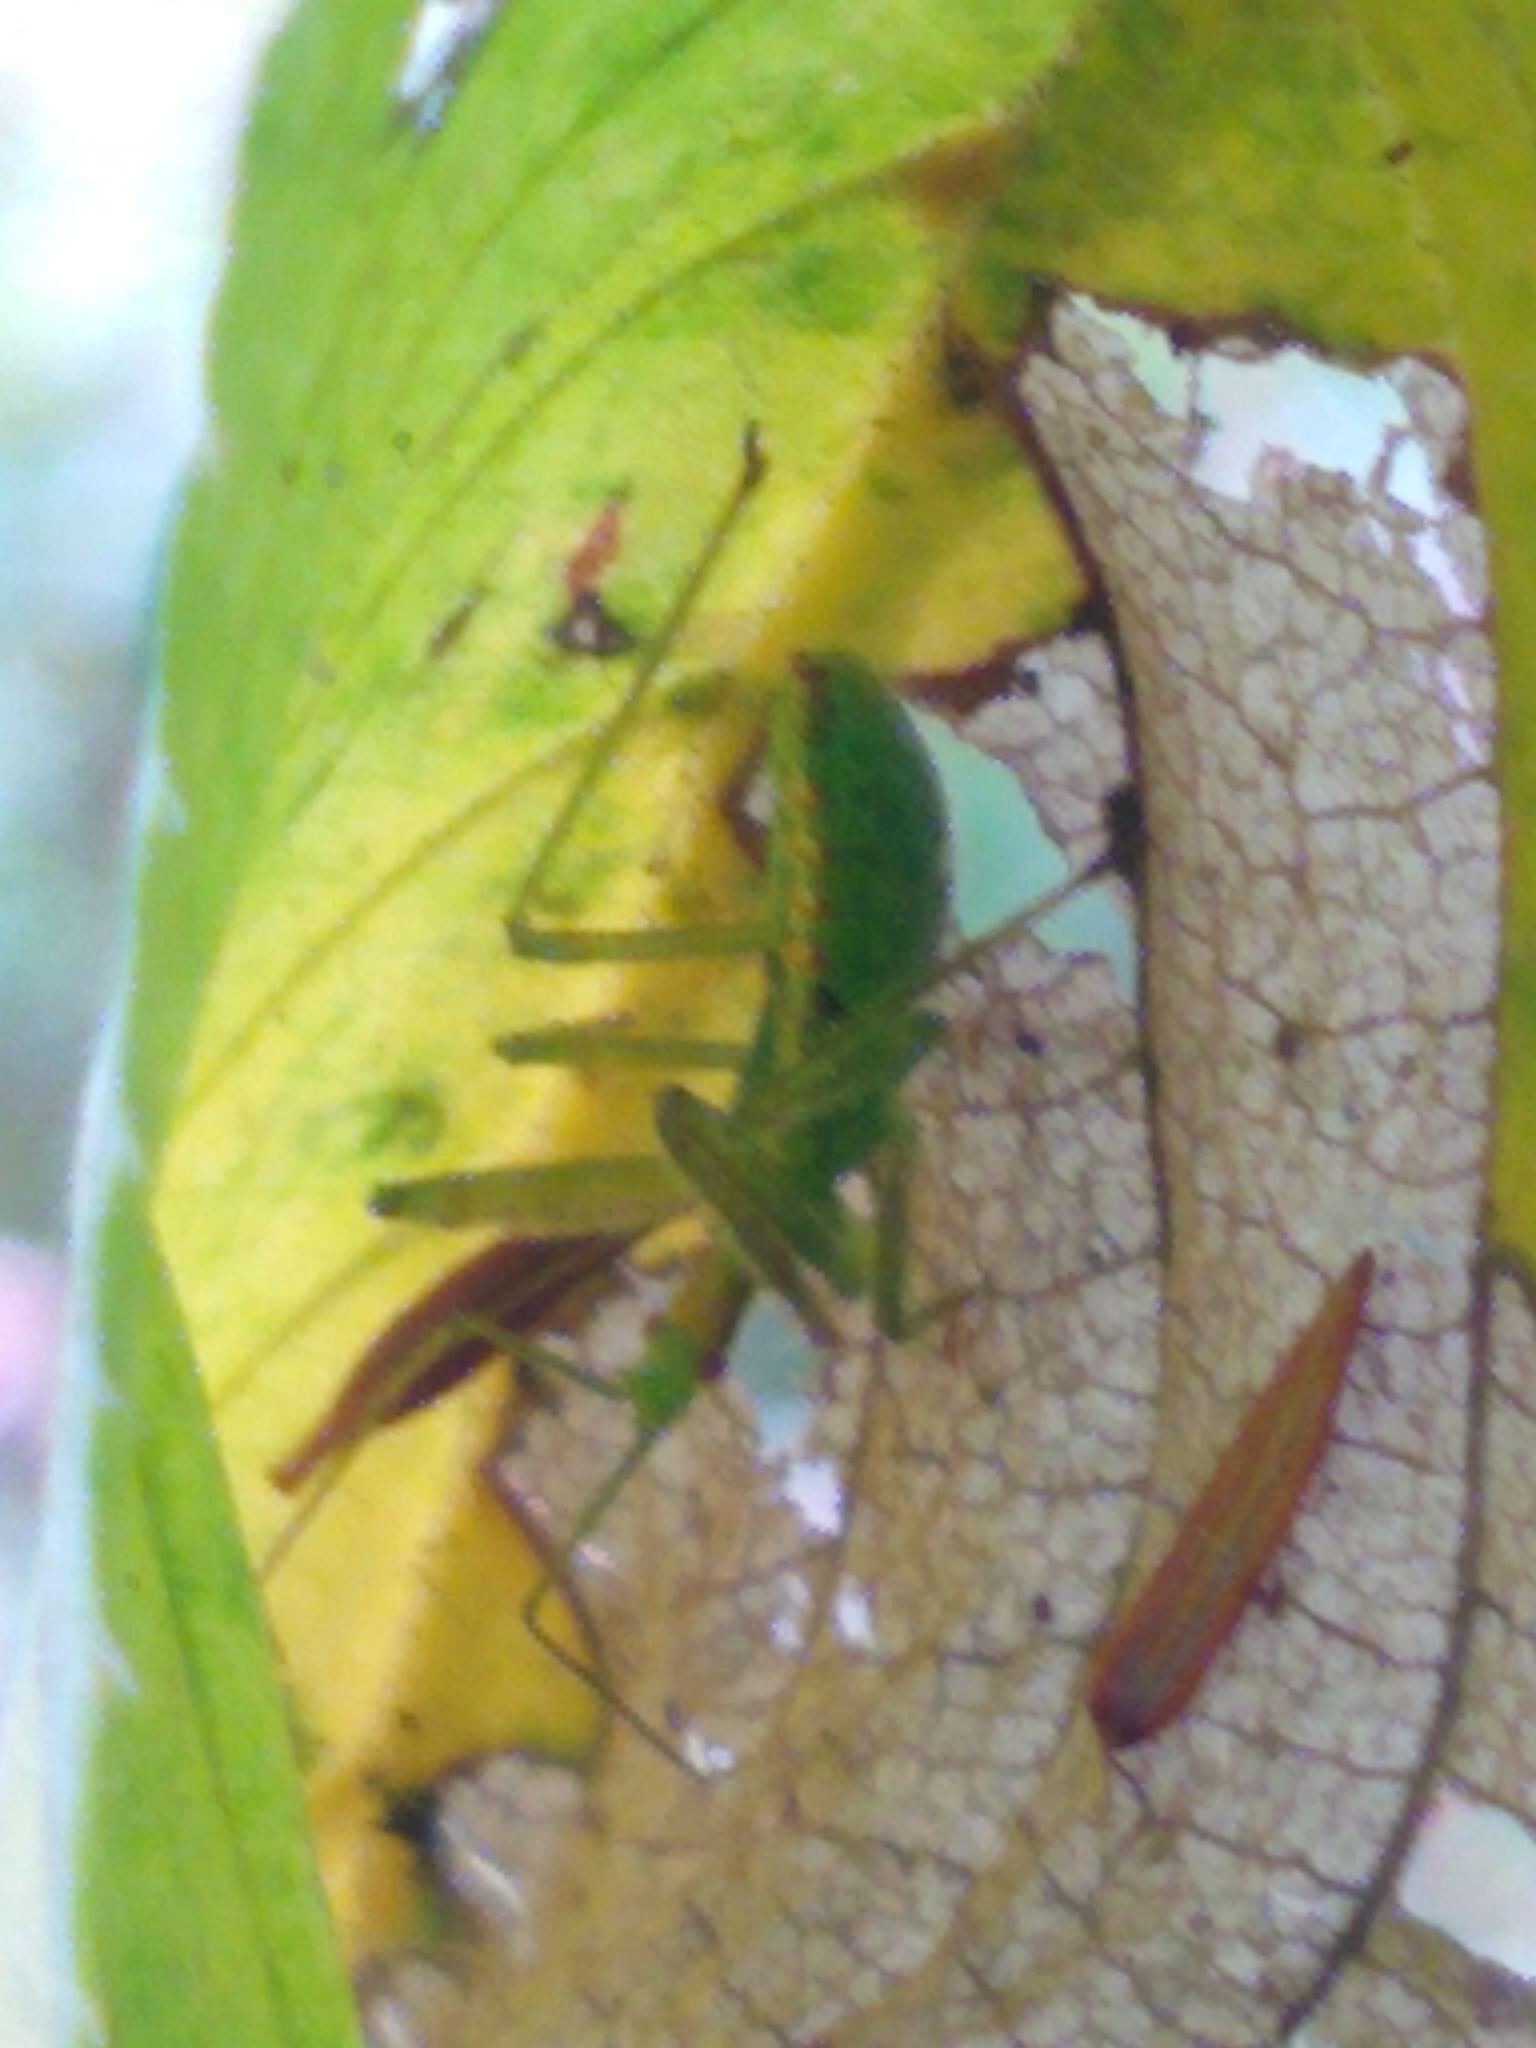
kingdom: Animalia
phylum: Arthropoda
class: Insecta
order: Hemiptera
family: Reduviidae
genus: Zelus
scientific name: Zelus luridus
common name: Pale green assassin bug
